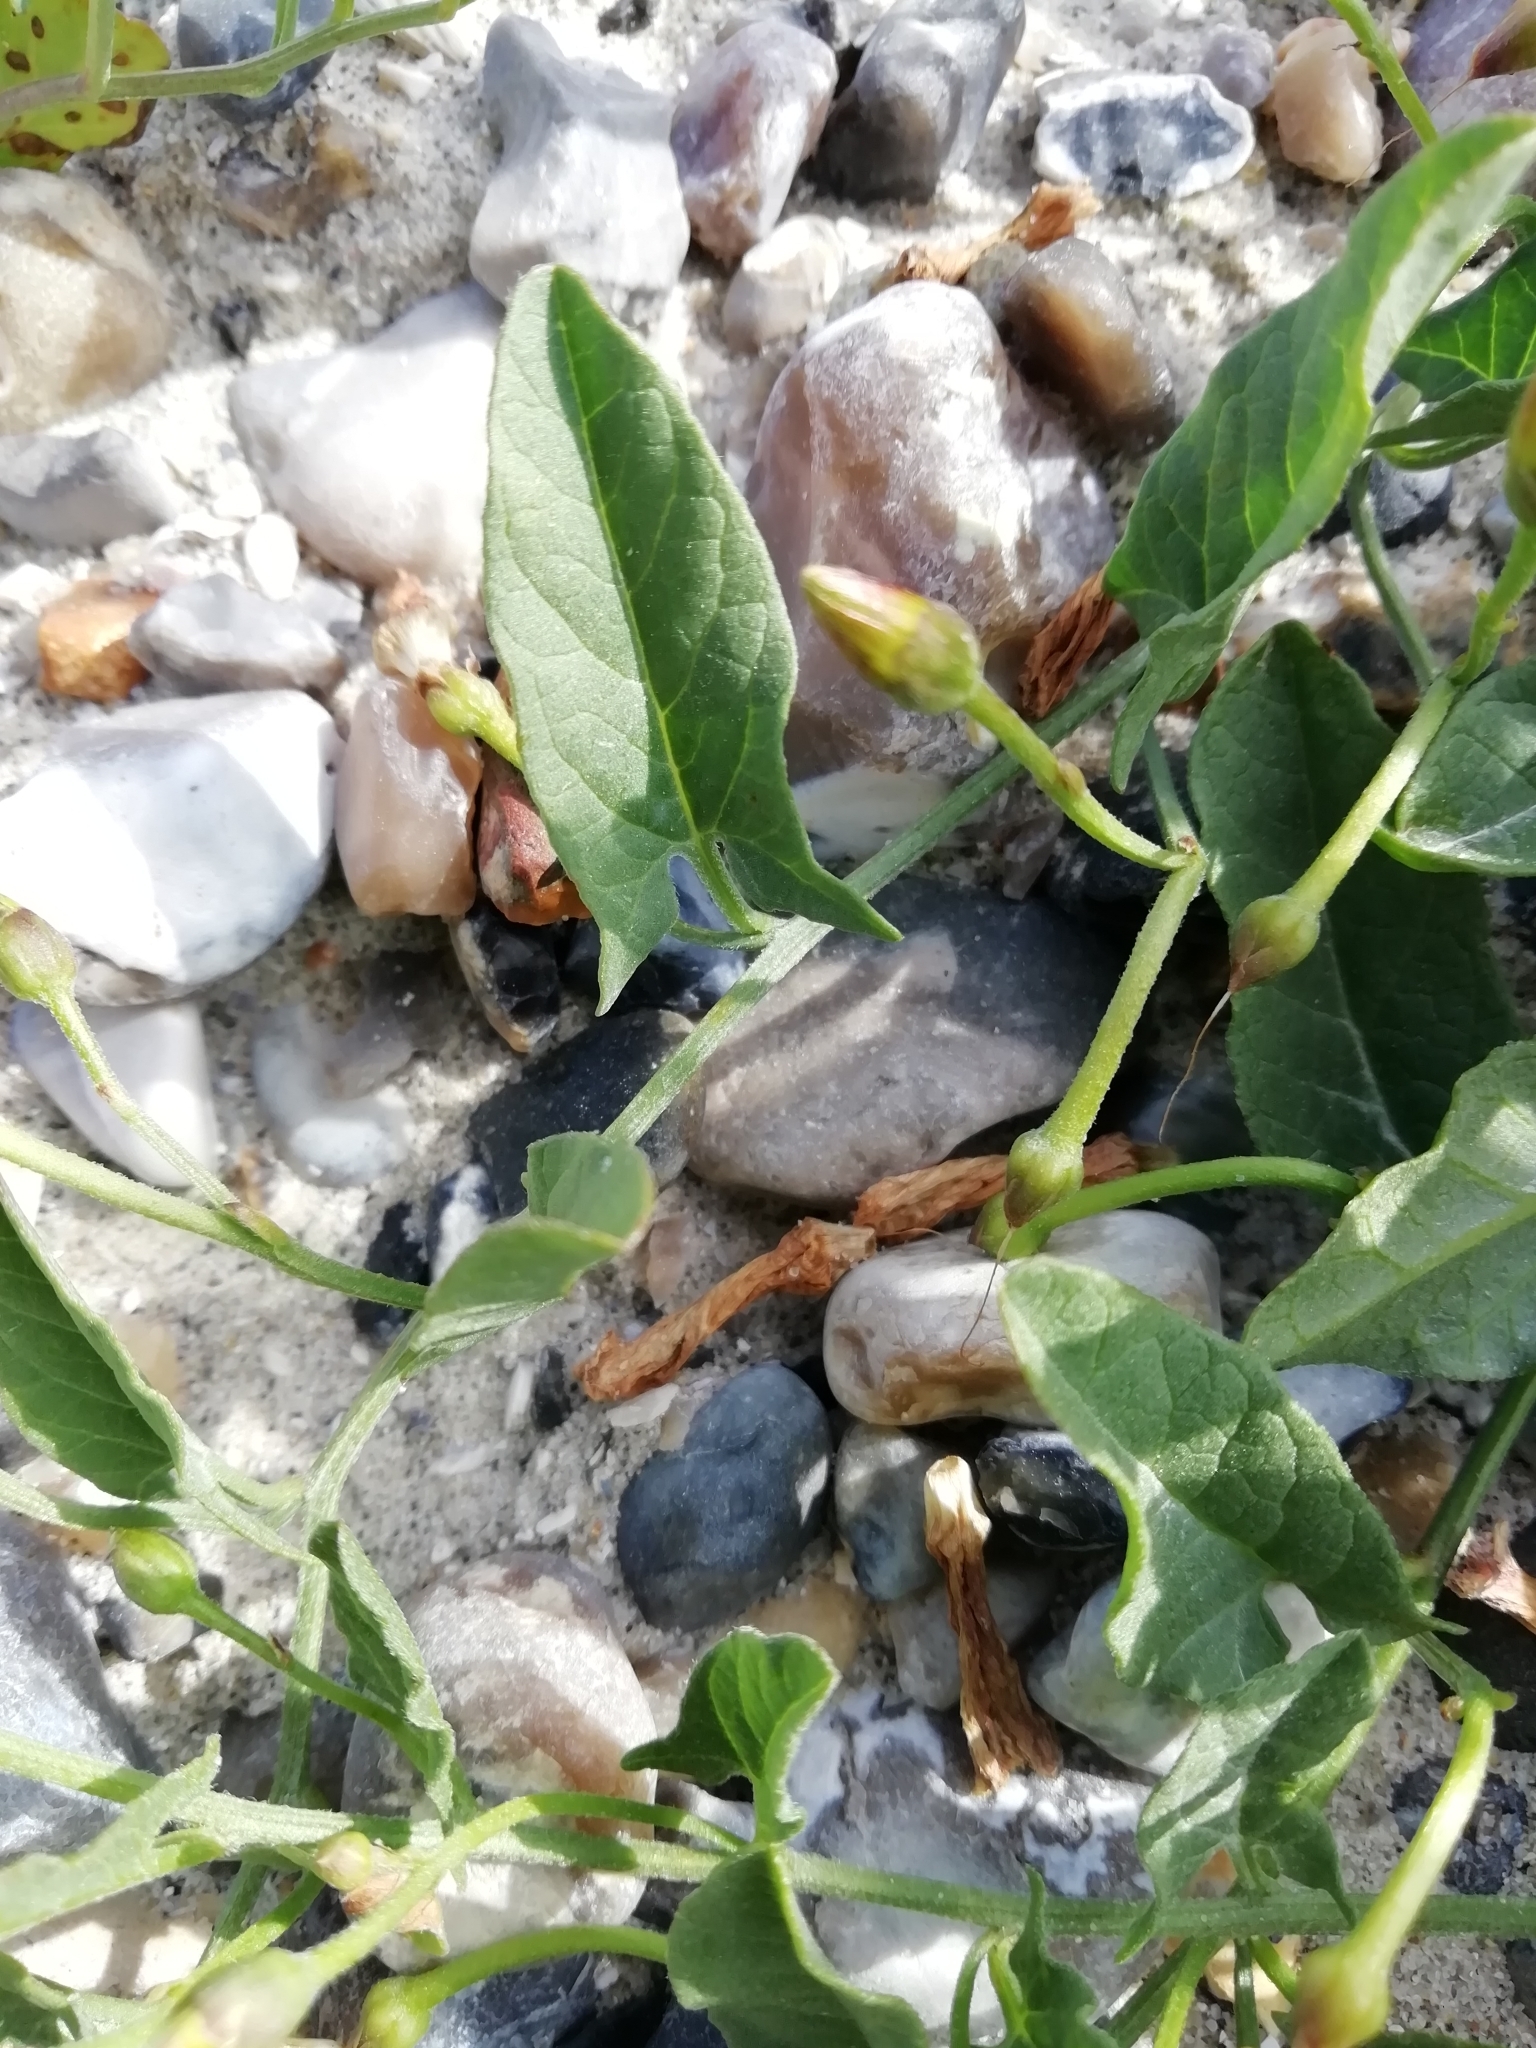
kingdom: Plantae
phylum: Tracheophyta
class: Magnoliopsida
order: Solanales
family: Convolvulaceae
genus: Convolvulus
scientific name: Convolvulus arvensis
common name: Field bindweed
